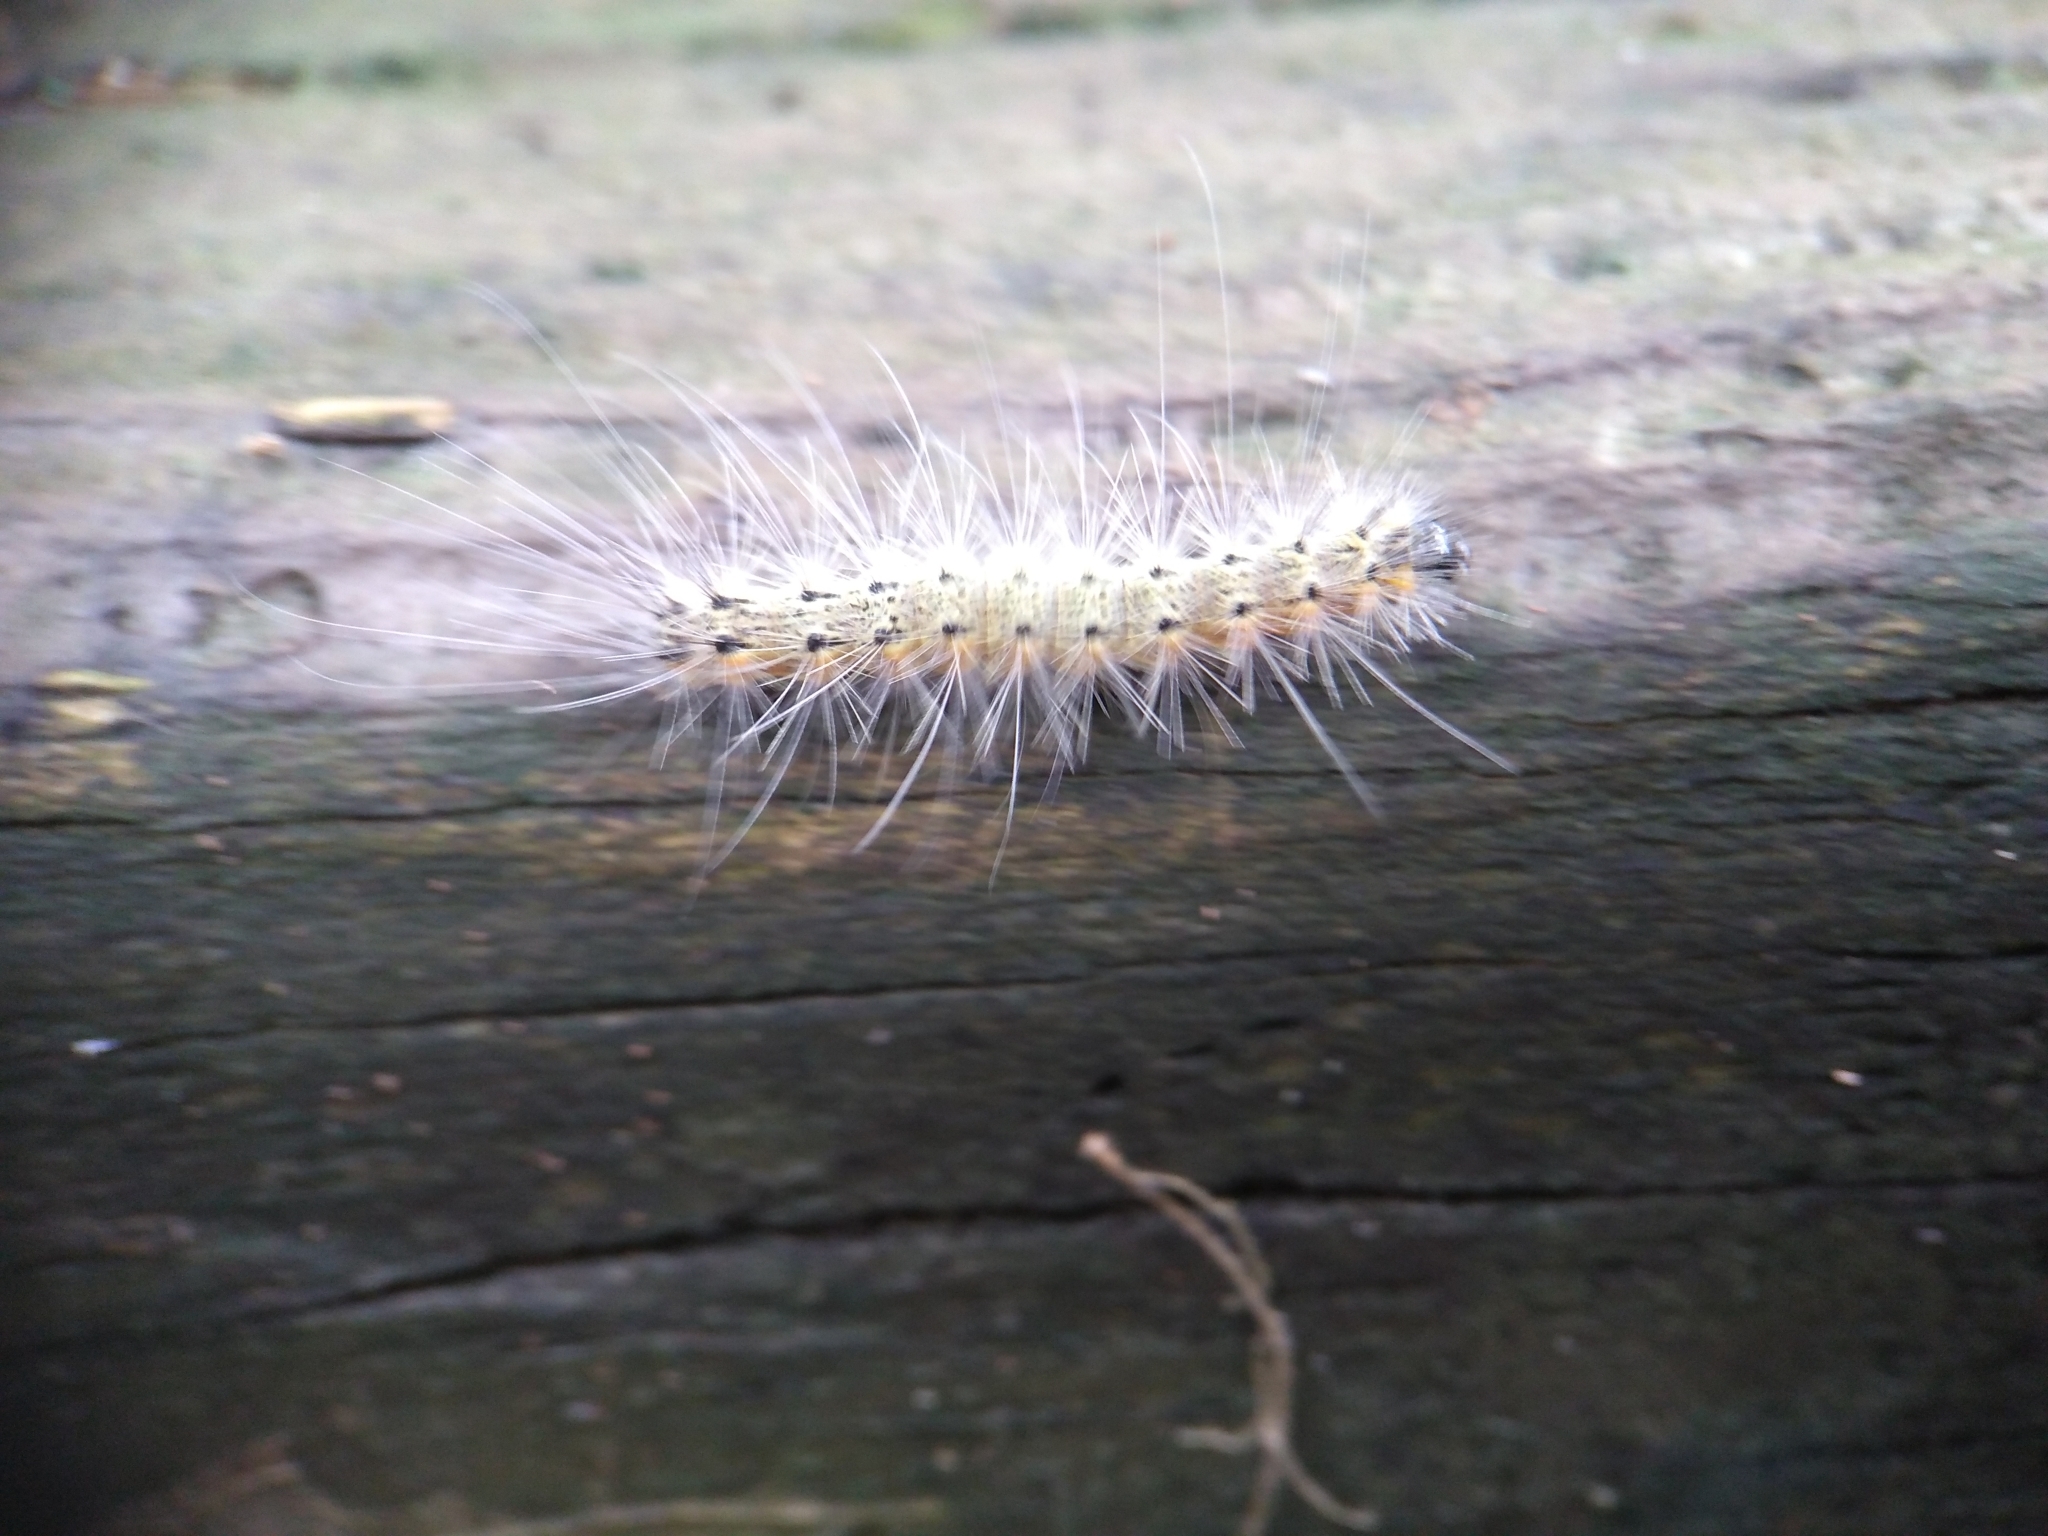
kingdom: Animalia
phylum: Arthropoda
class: Insecta
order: Lepidoptera
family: Erebidae
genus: Hyphantria
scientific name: Hyphantria cunea
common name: American white moth
